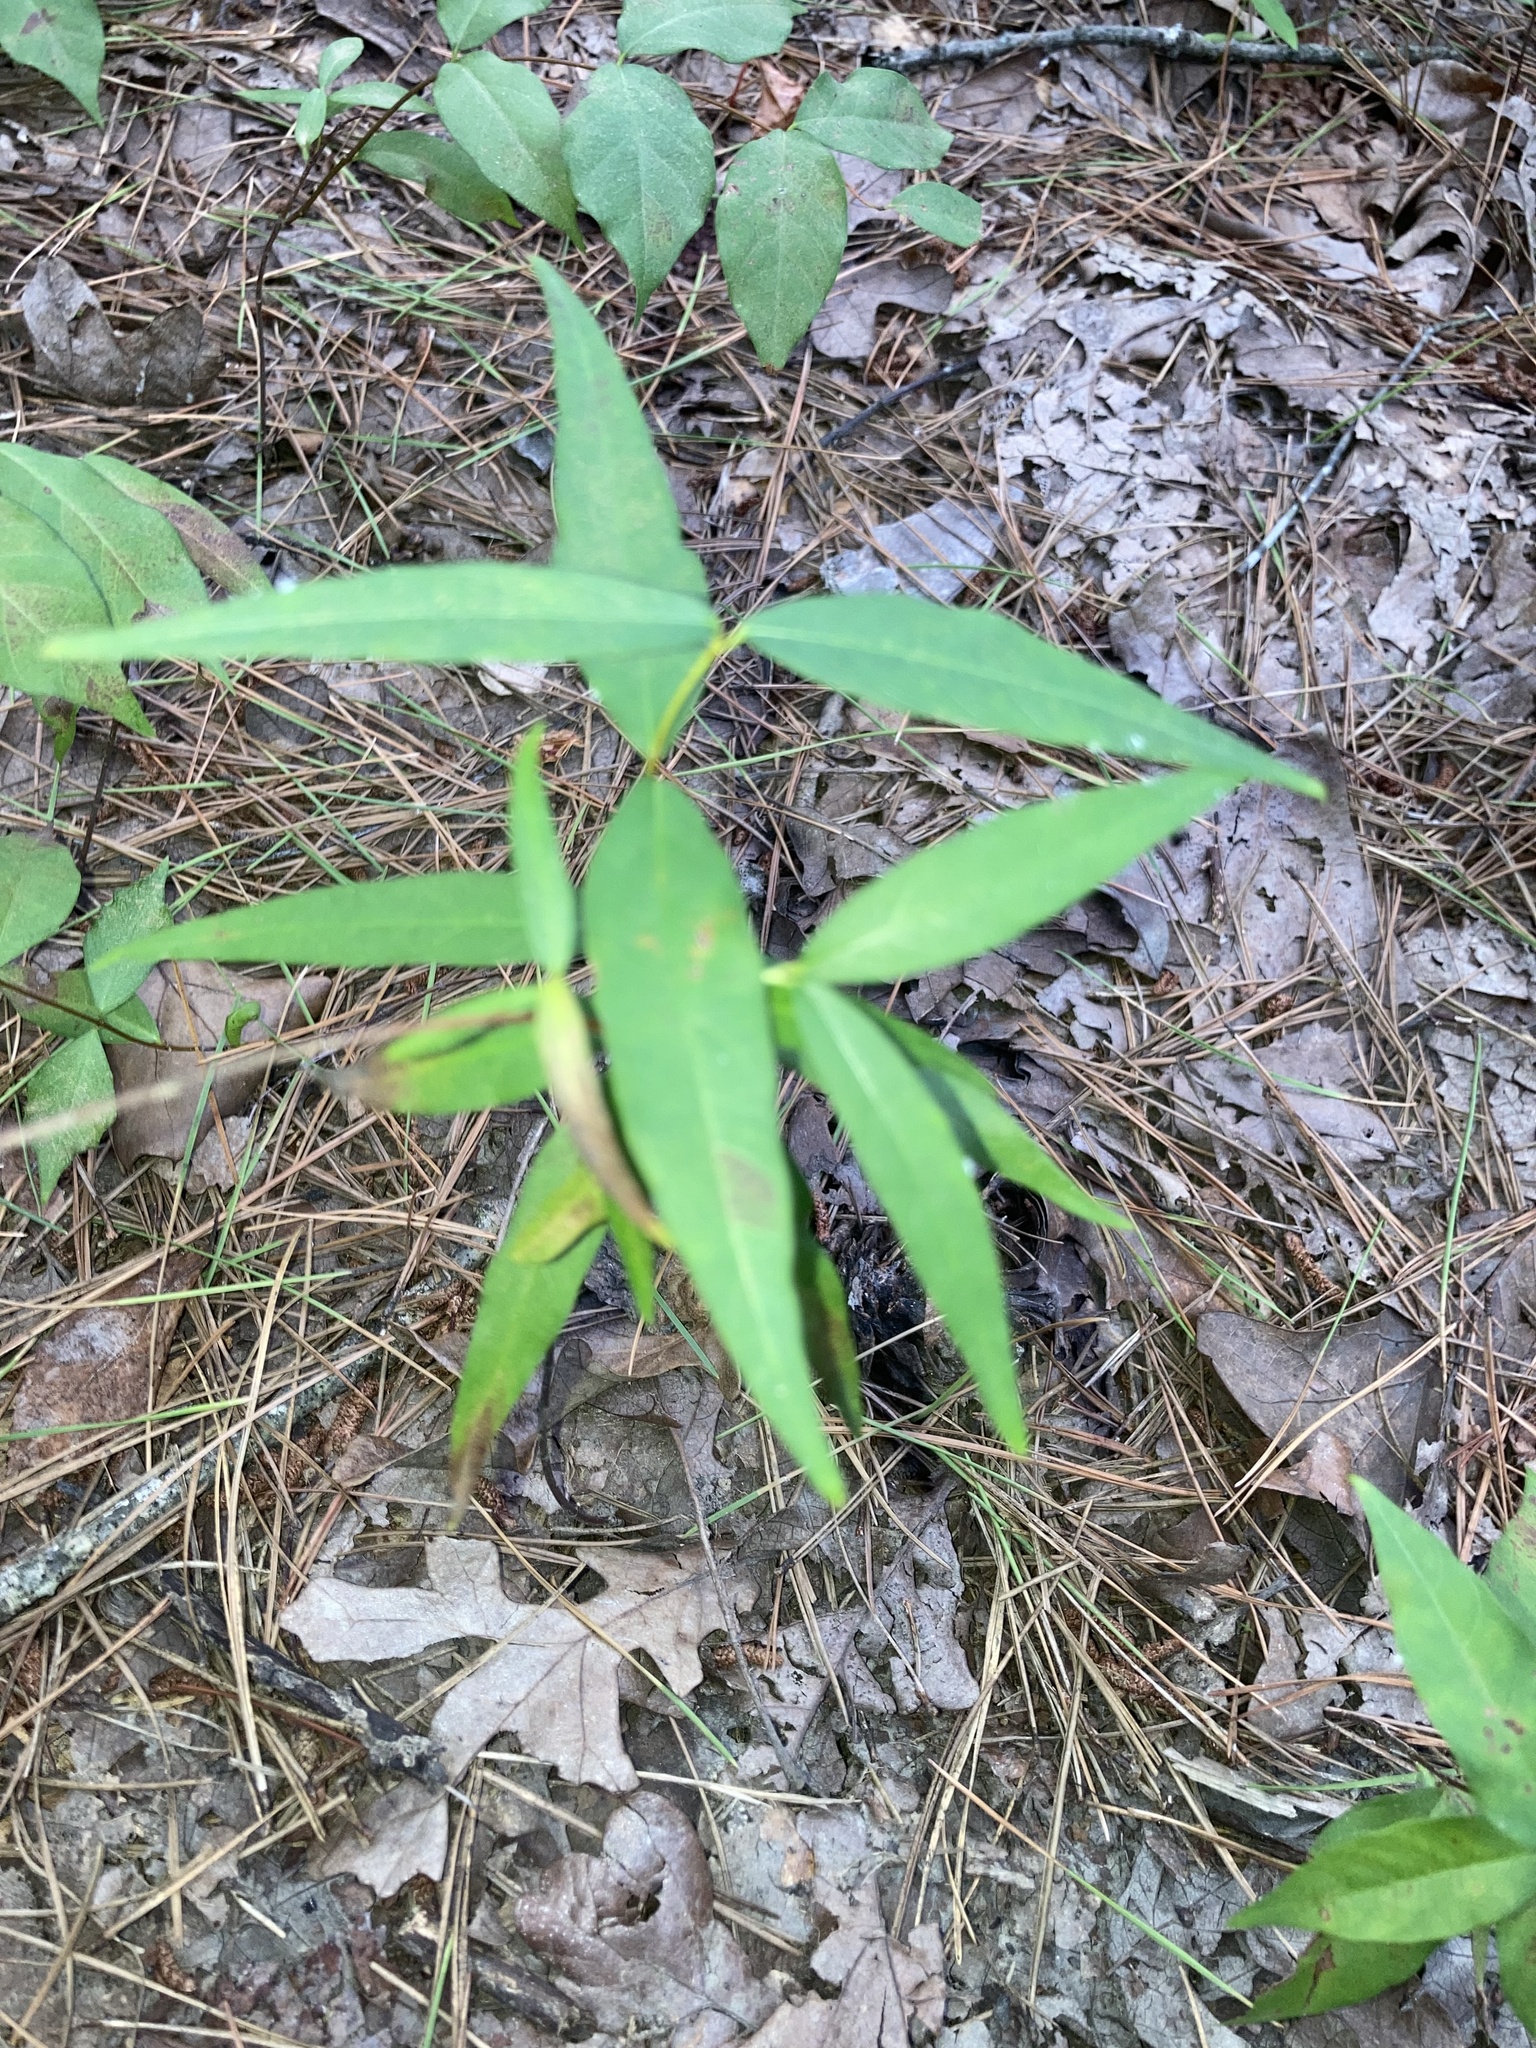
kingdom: Plantae
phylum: Tracheophyta
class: Magnoliopsida
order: Gentianales
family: Apocynaceae
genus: Thyrsanthella
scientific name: Thyrsanthella difformis
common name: Climbing dogbane
